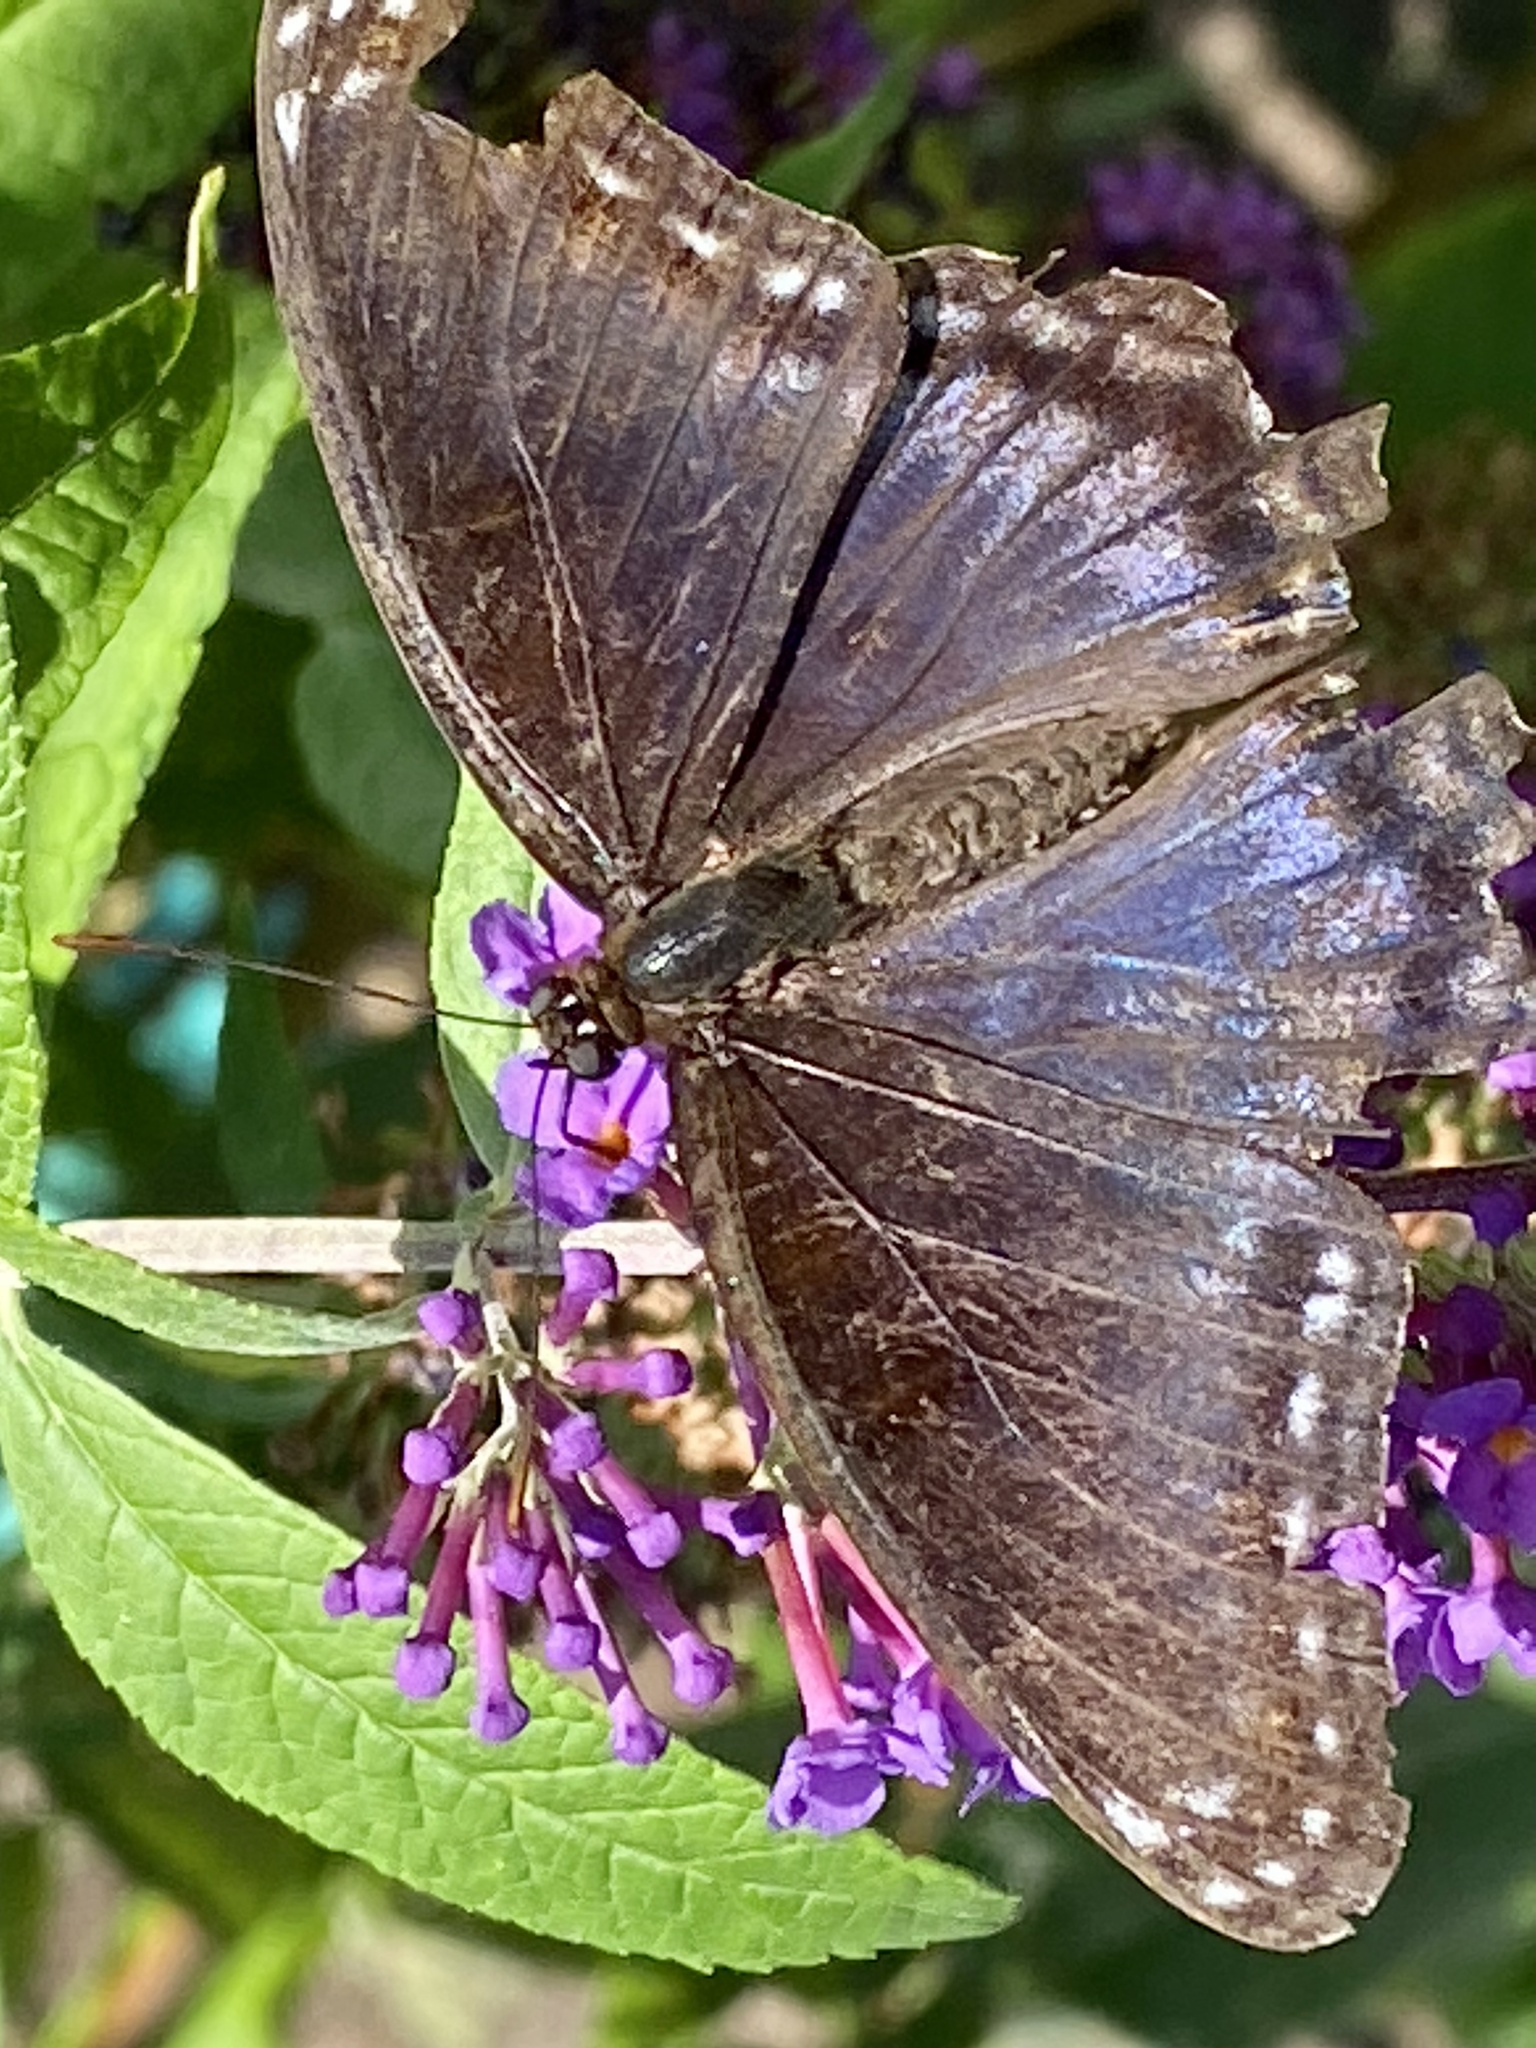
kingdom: Animalia
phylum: Arthropoda
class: Insecta
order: Lepidoptera
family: Nymphalidae
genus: Limenitis
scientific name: Limenitis arthemis
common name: Red-spotted admiral
